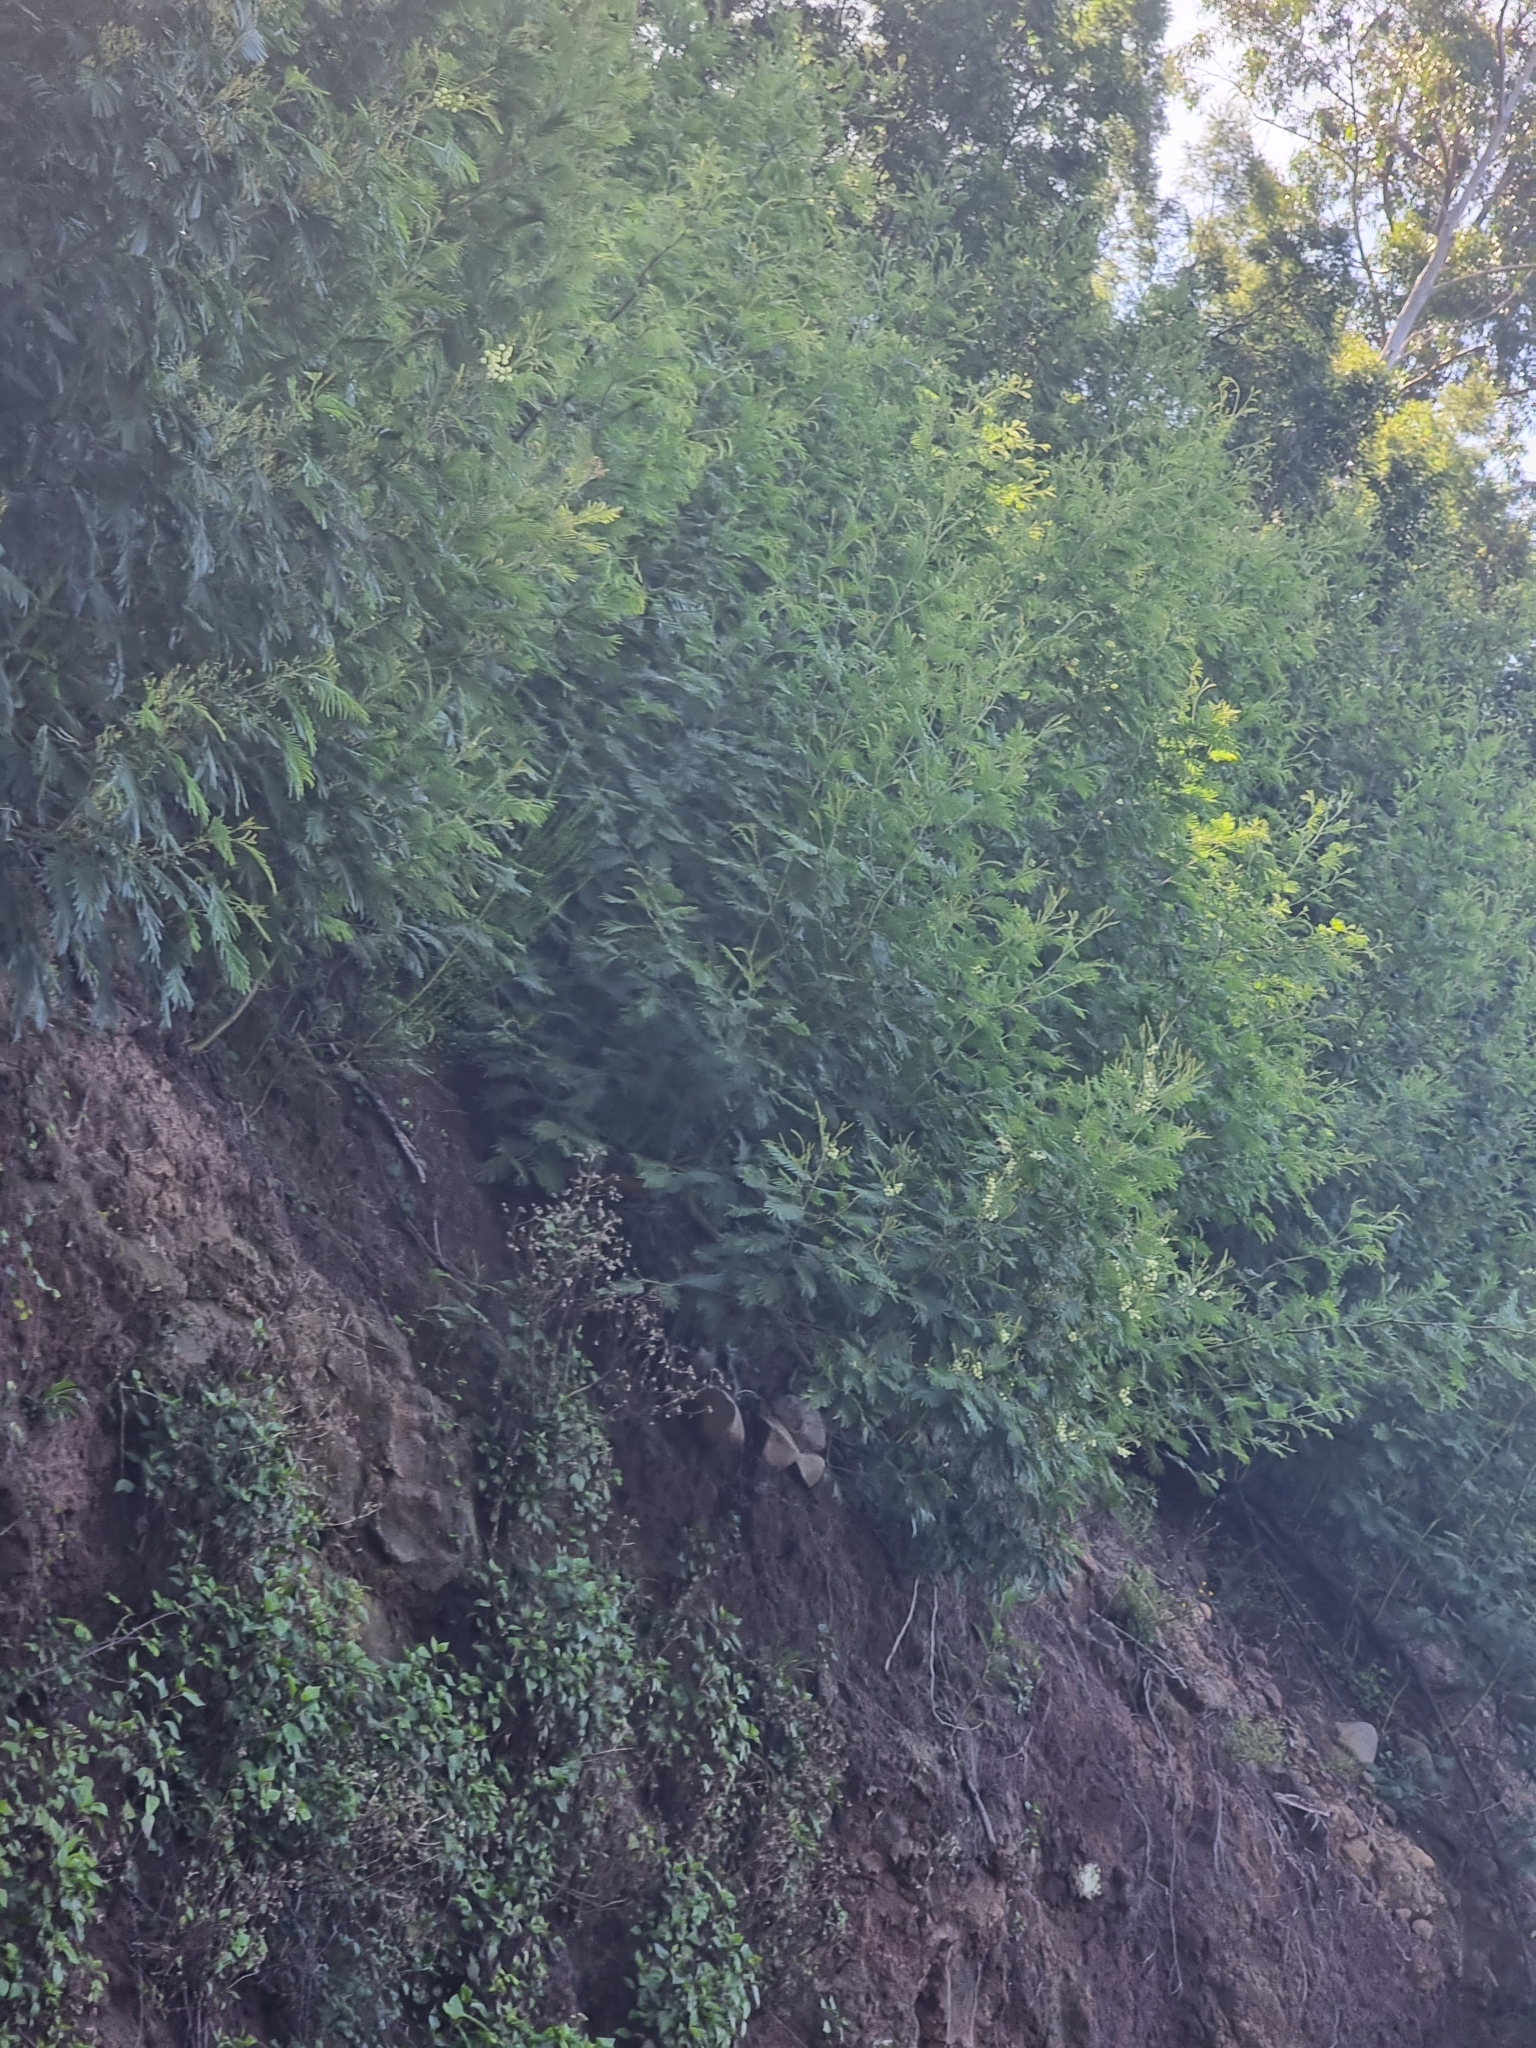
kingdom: Plantae
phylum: Tracheophyta
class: Magnoliopsida
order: Fabales
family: Fabaceae
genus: Acacia
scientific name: Acacia mearnsii
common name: Black wattle
